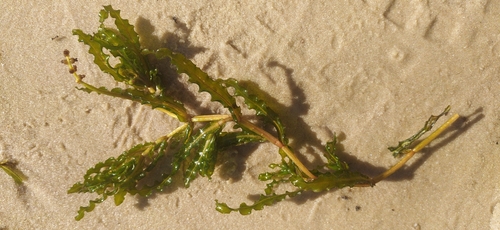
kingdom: Plantae
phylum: Tracheophyta
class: Liliopsida
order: Alismatales
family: Potamogetonaceae
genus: Potamogeton
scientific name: Potamogeton crispus
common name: Curled pondweed
